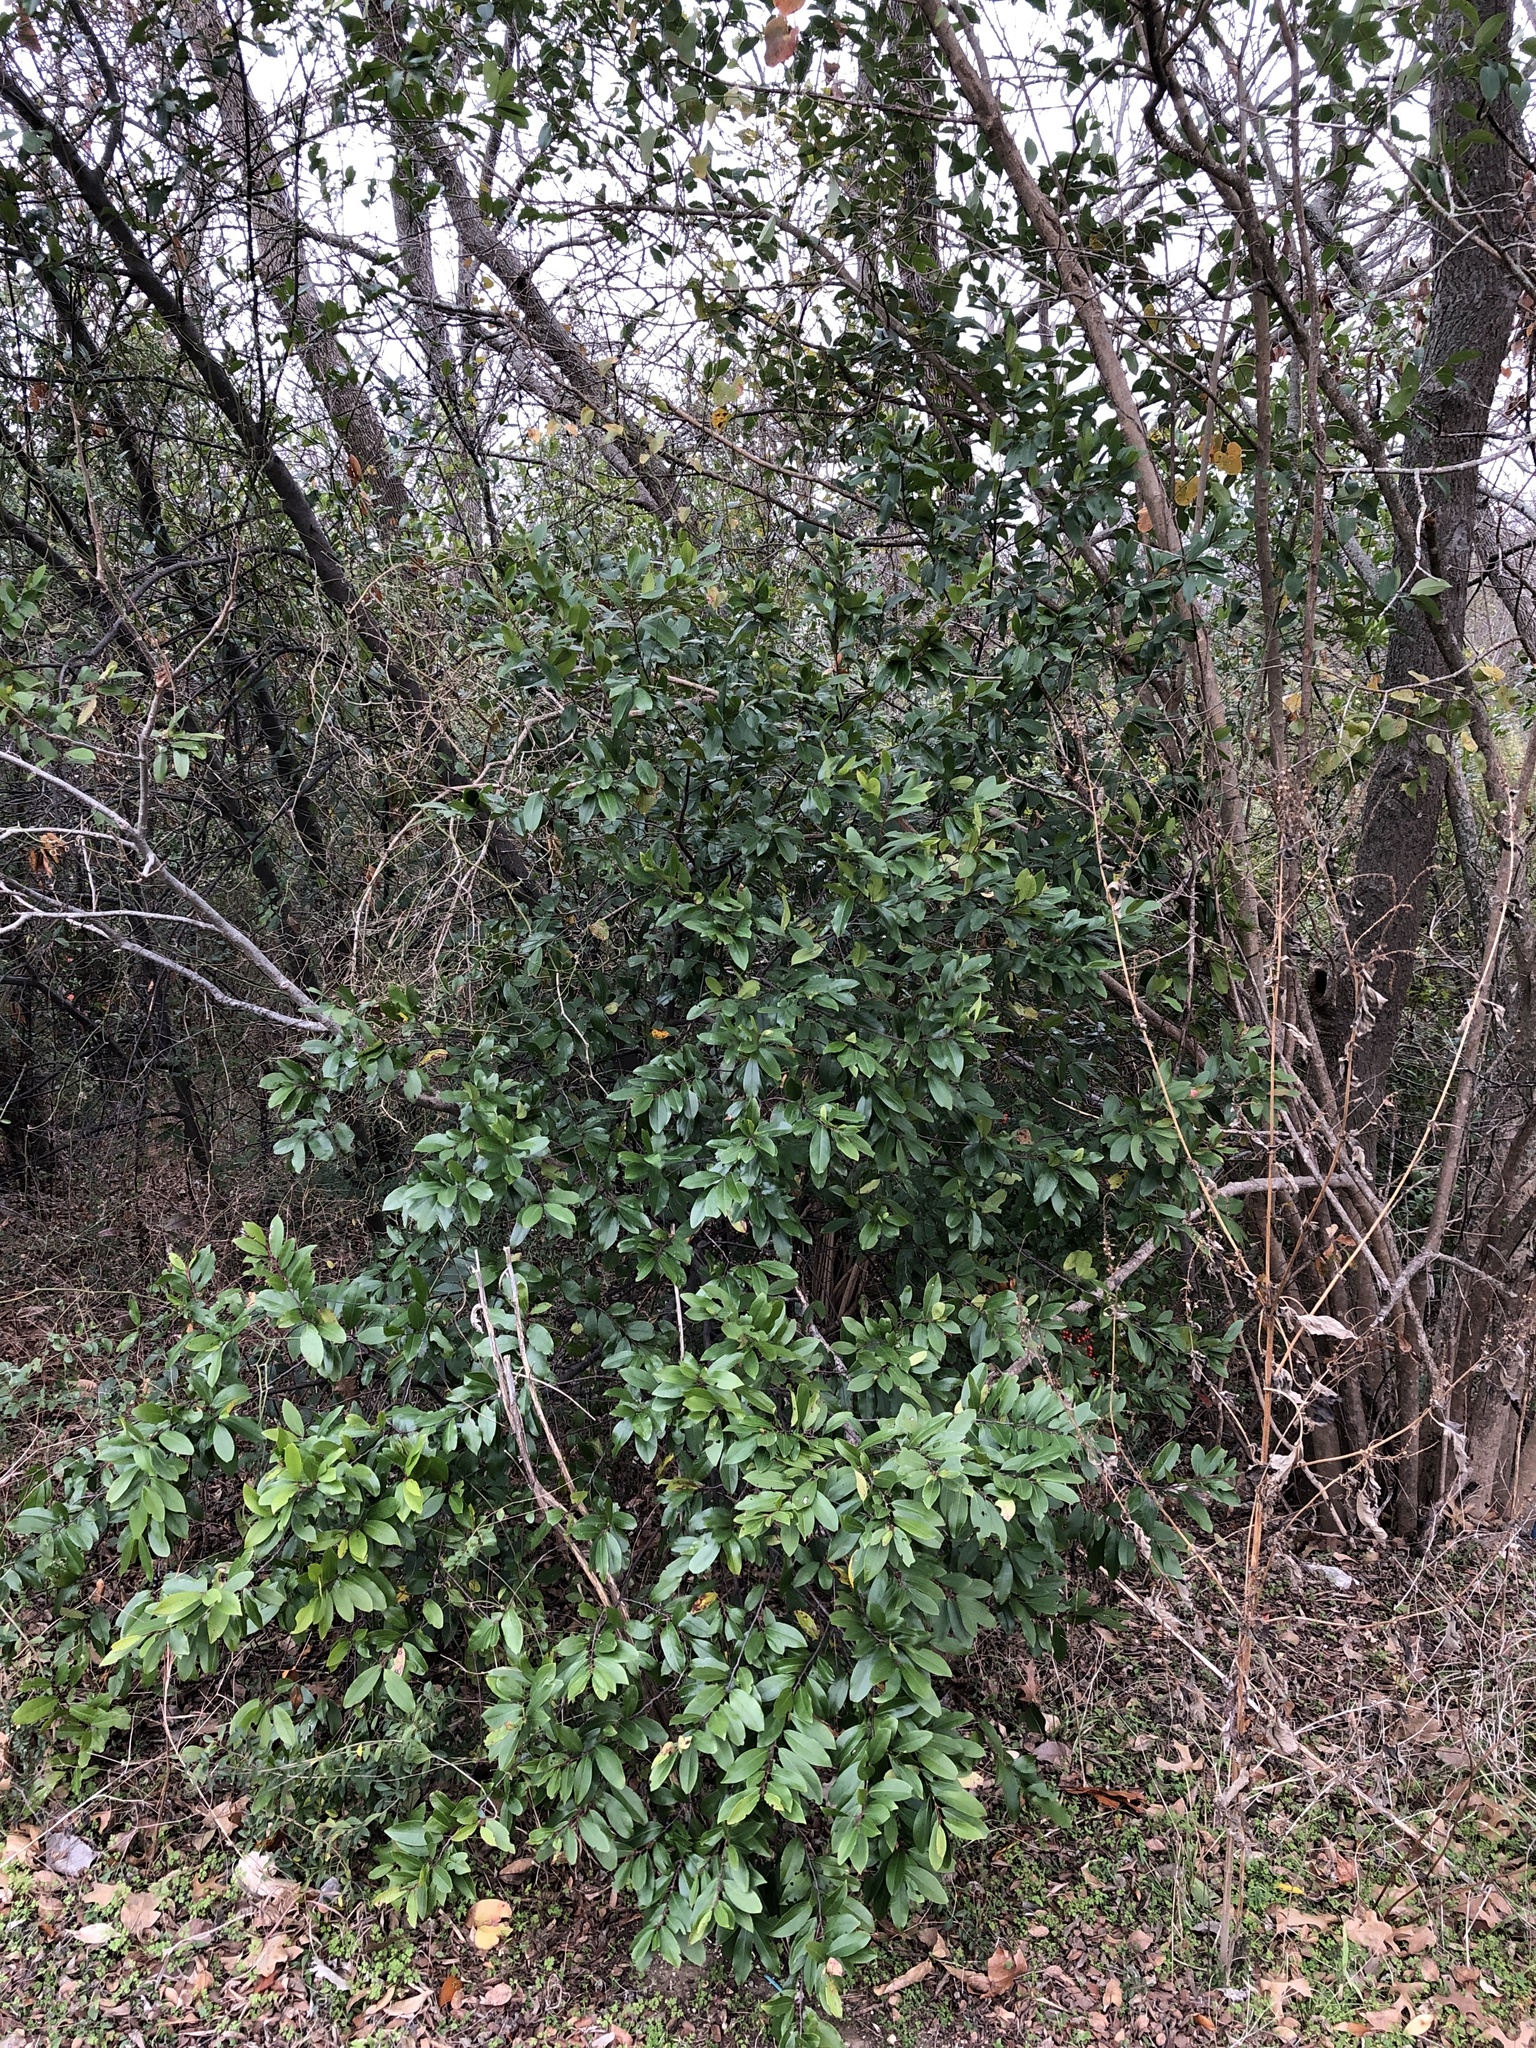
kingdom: Plantae
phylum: Tracheophyta
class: Magnoliopsida
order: Rosales
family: Rosaceae
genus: Prunus
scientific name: Prunus caroliniana
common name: Carolina laurel cherry
